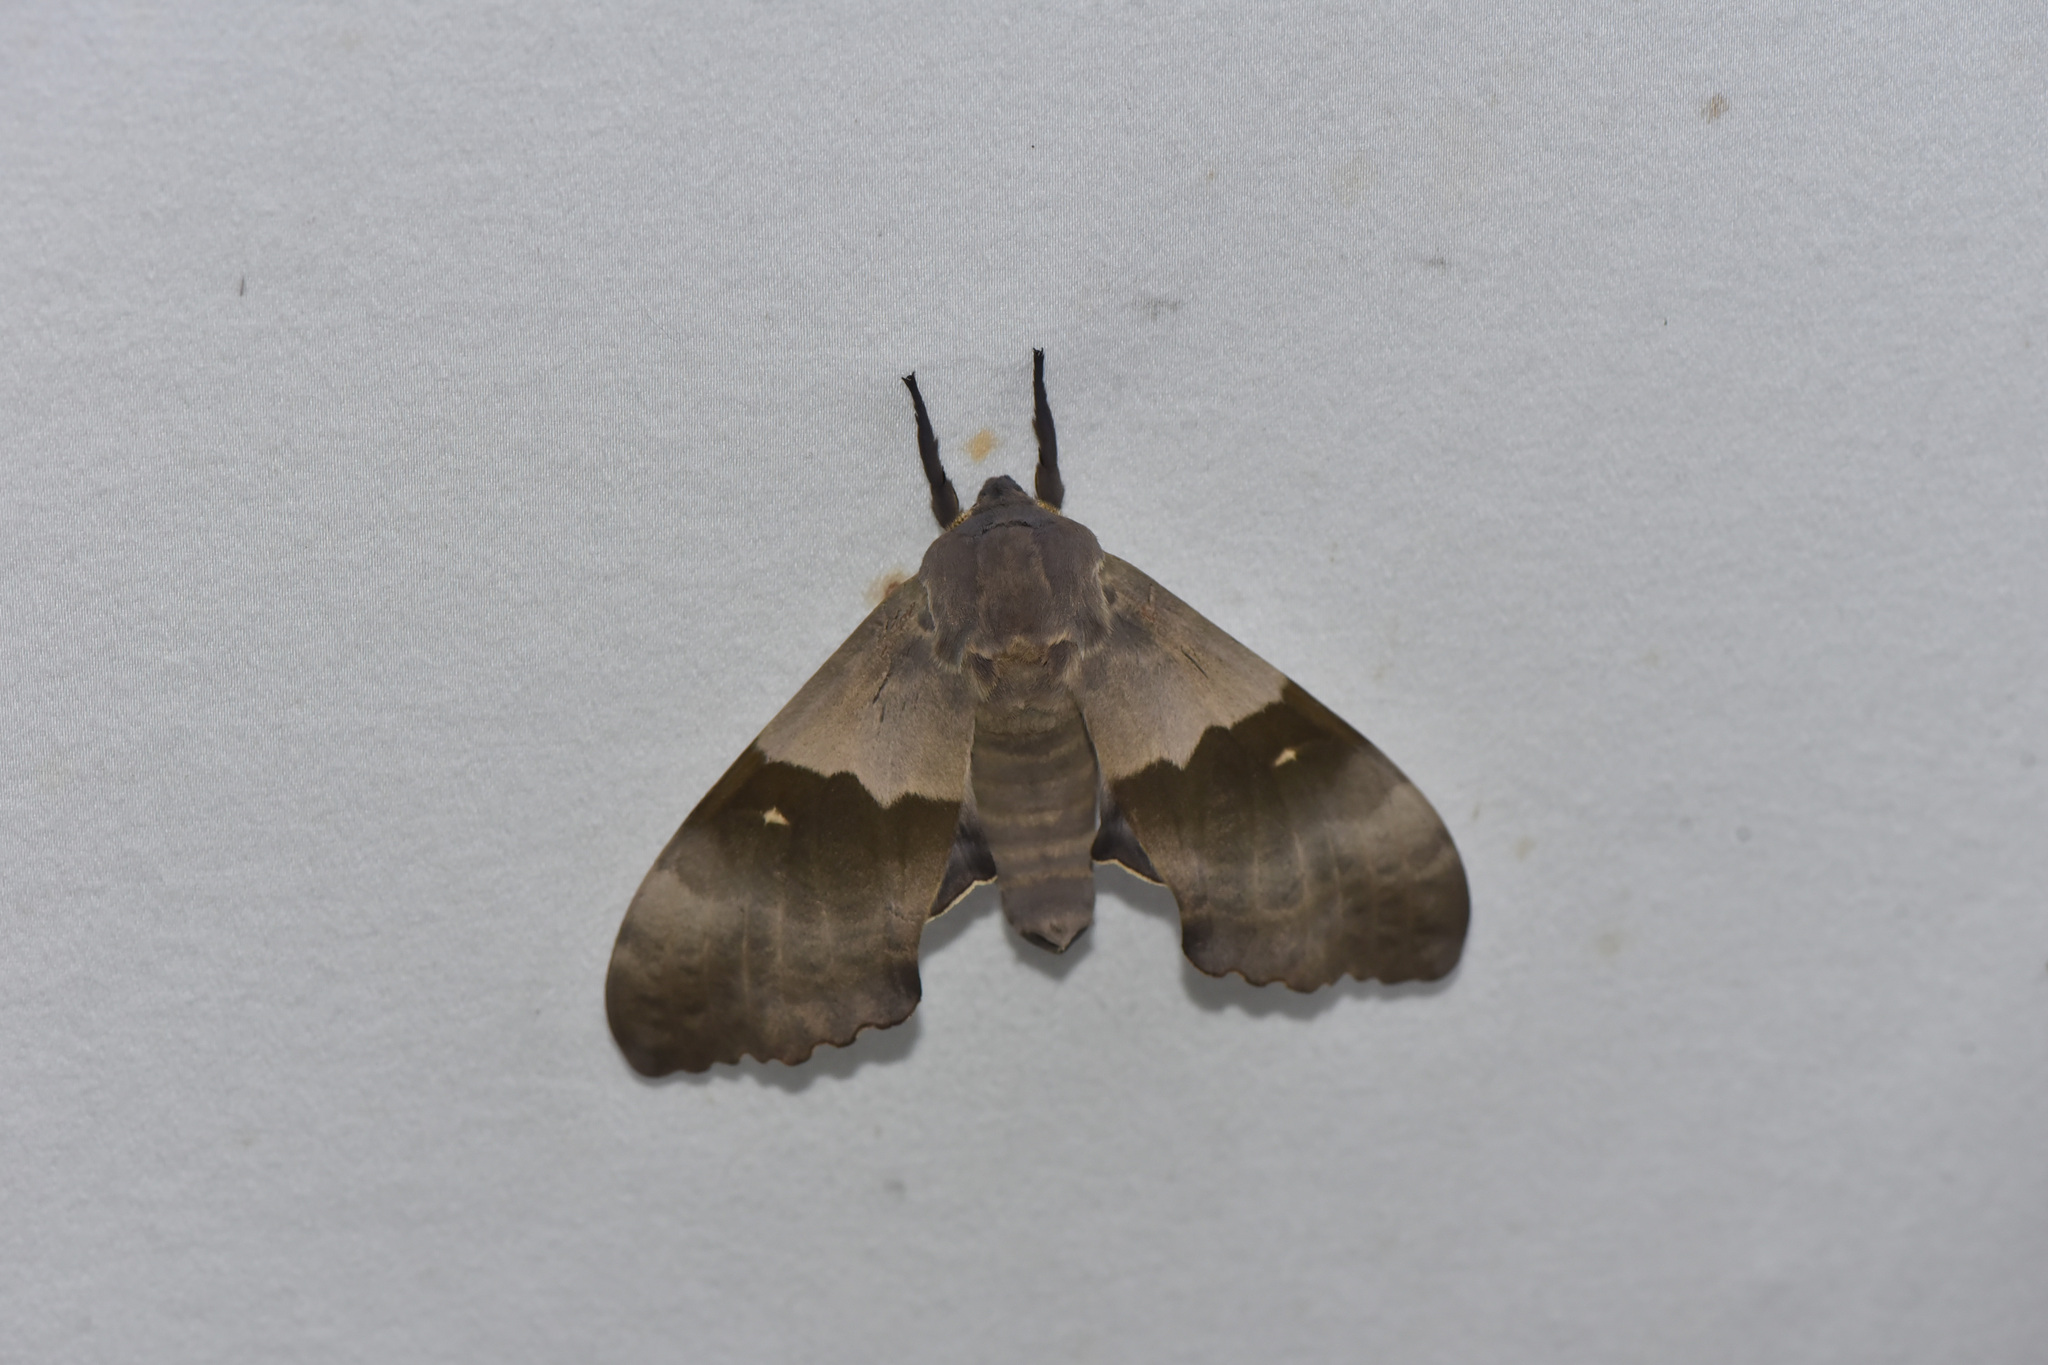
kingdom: Animalia
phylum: Arthropoda
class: Insecta
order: Lepidoptera
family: Sphingidae
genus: Pachysphinx
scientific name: Pachysphinx modesta
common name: Big poplar sphinx
